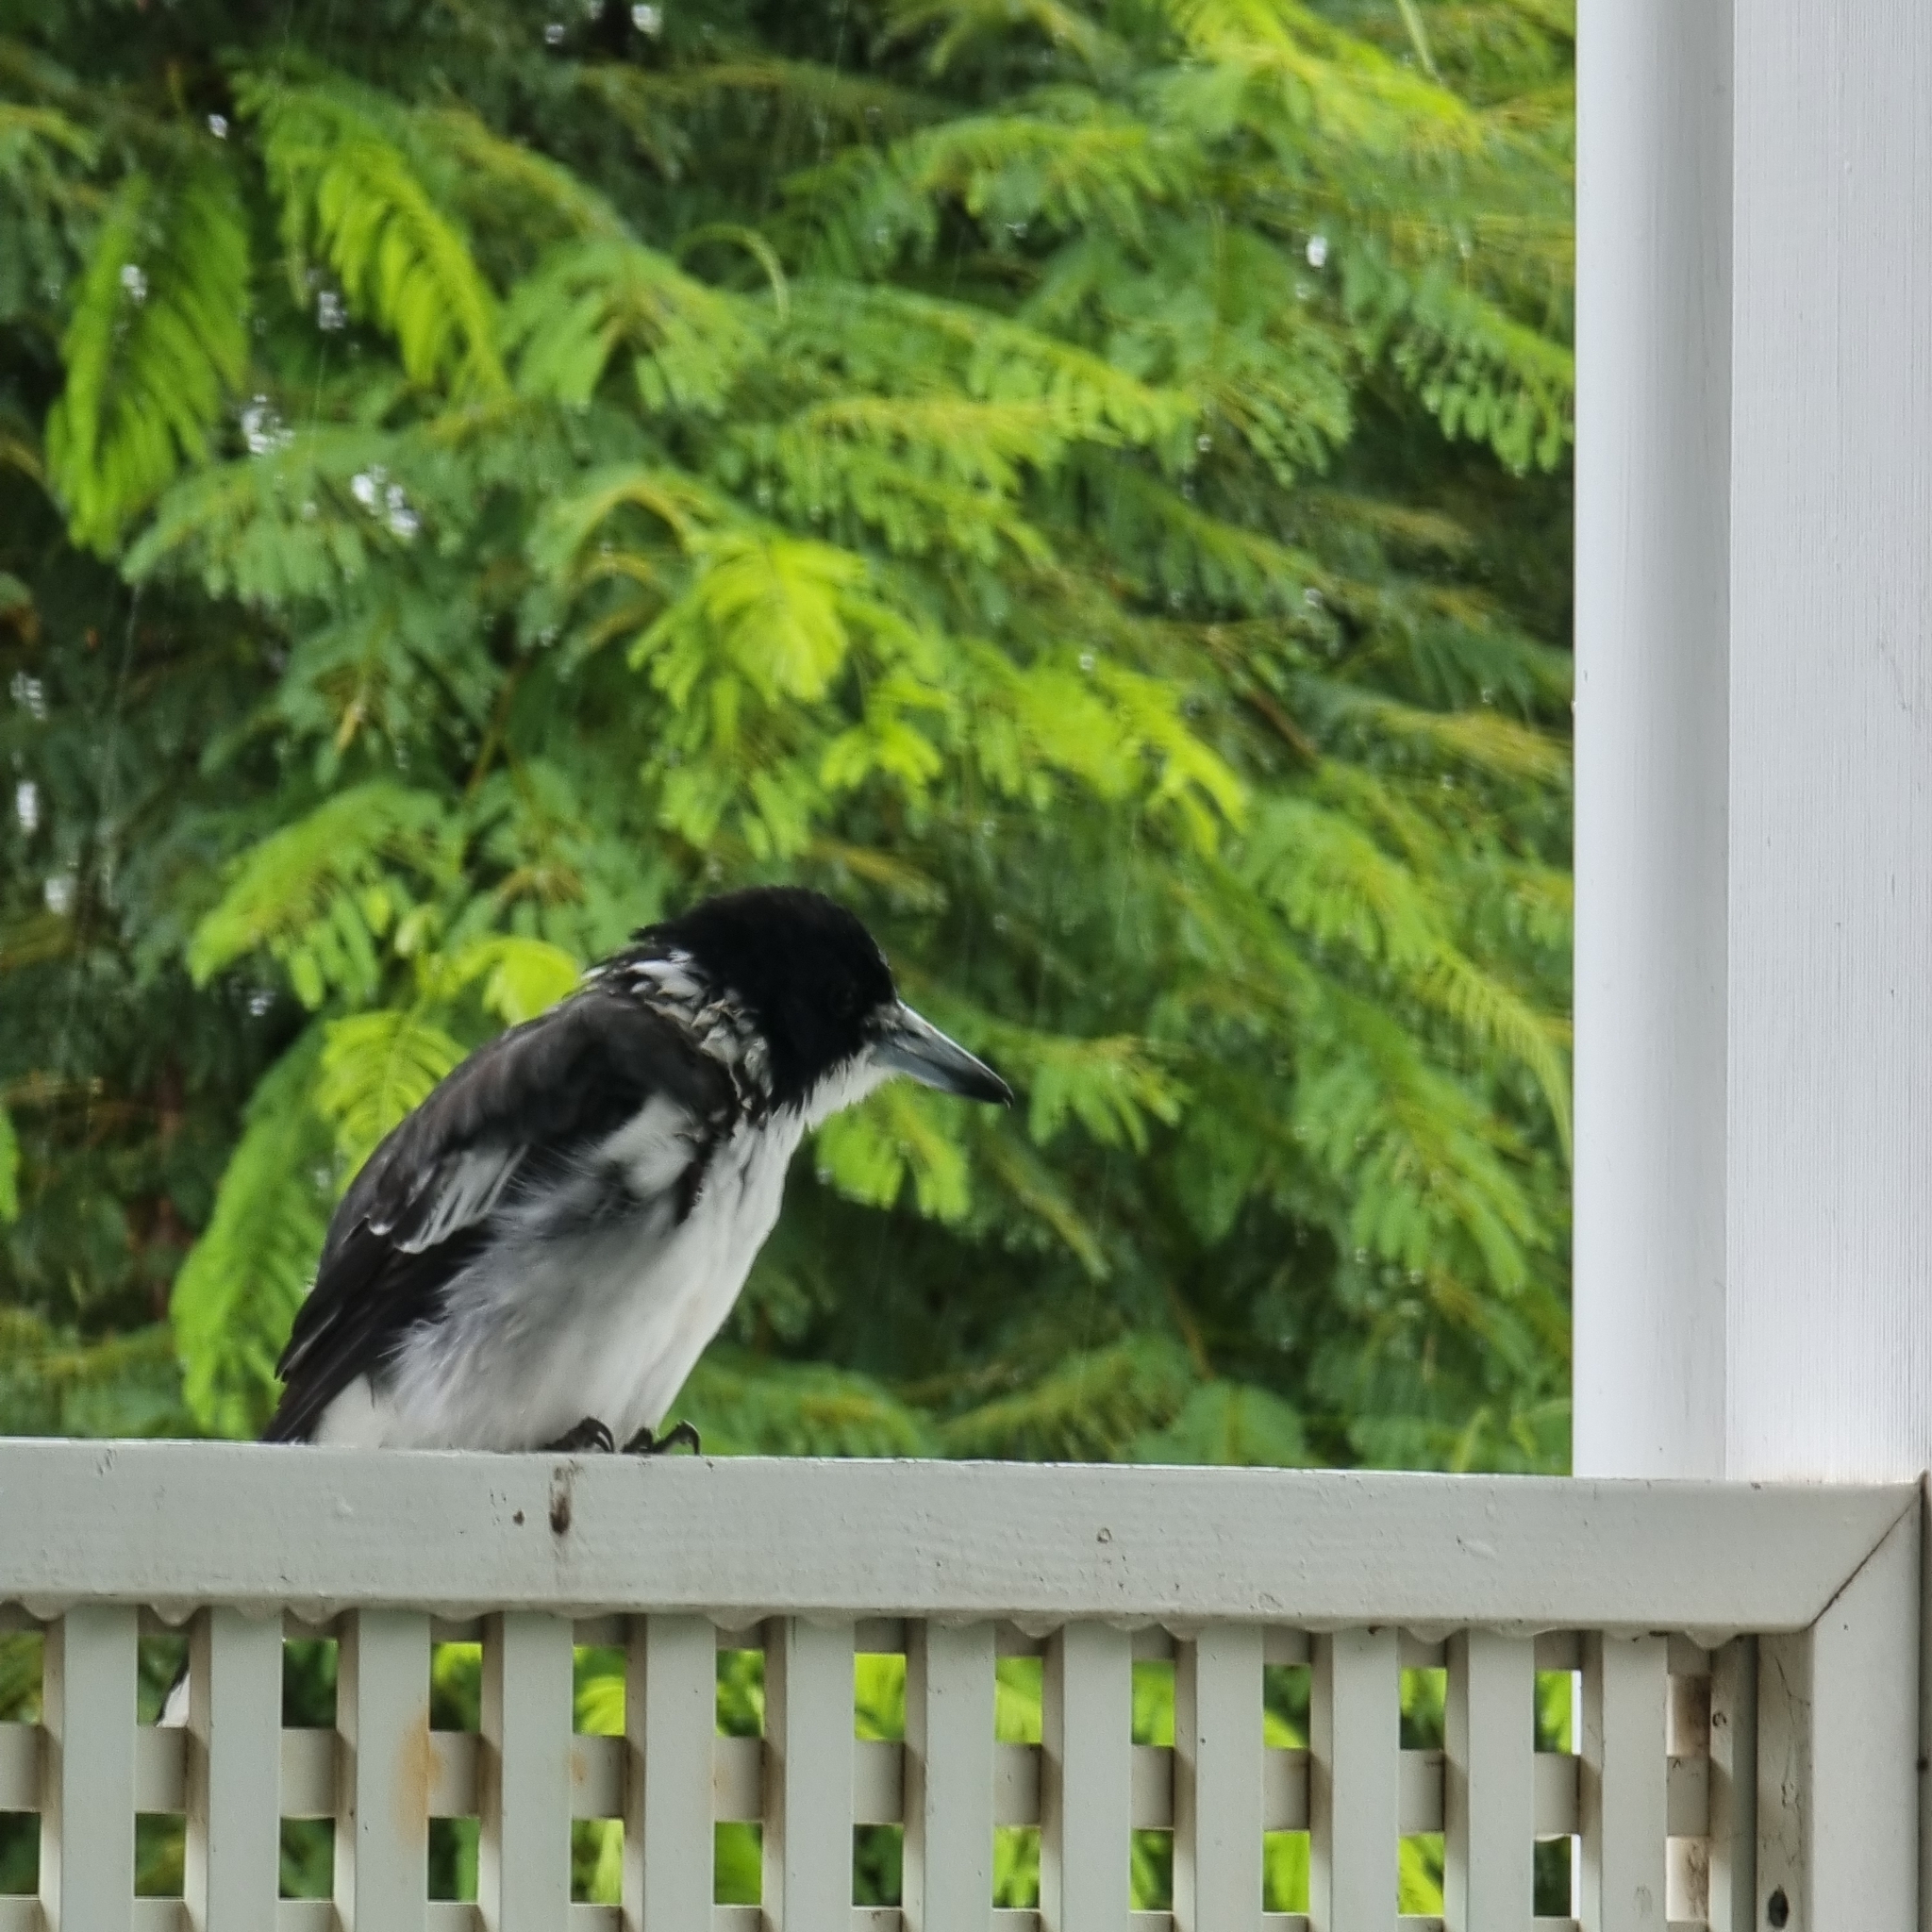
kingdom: Animalia
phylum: Chordata
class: Aves
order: Passeriformes
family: Cracticidae
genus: Cracticus
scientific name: Cracticus torquatus
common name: Grey butcherbird
